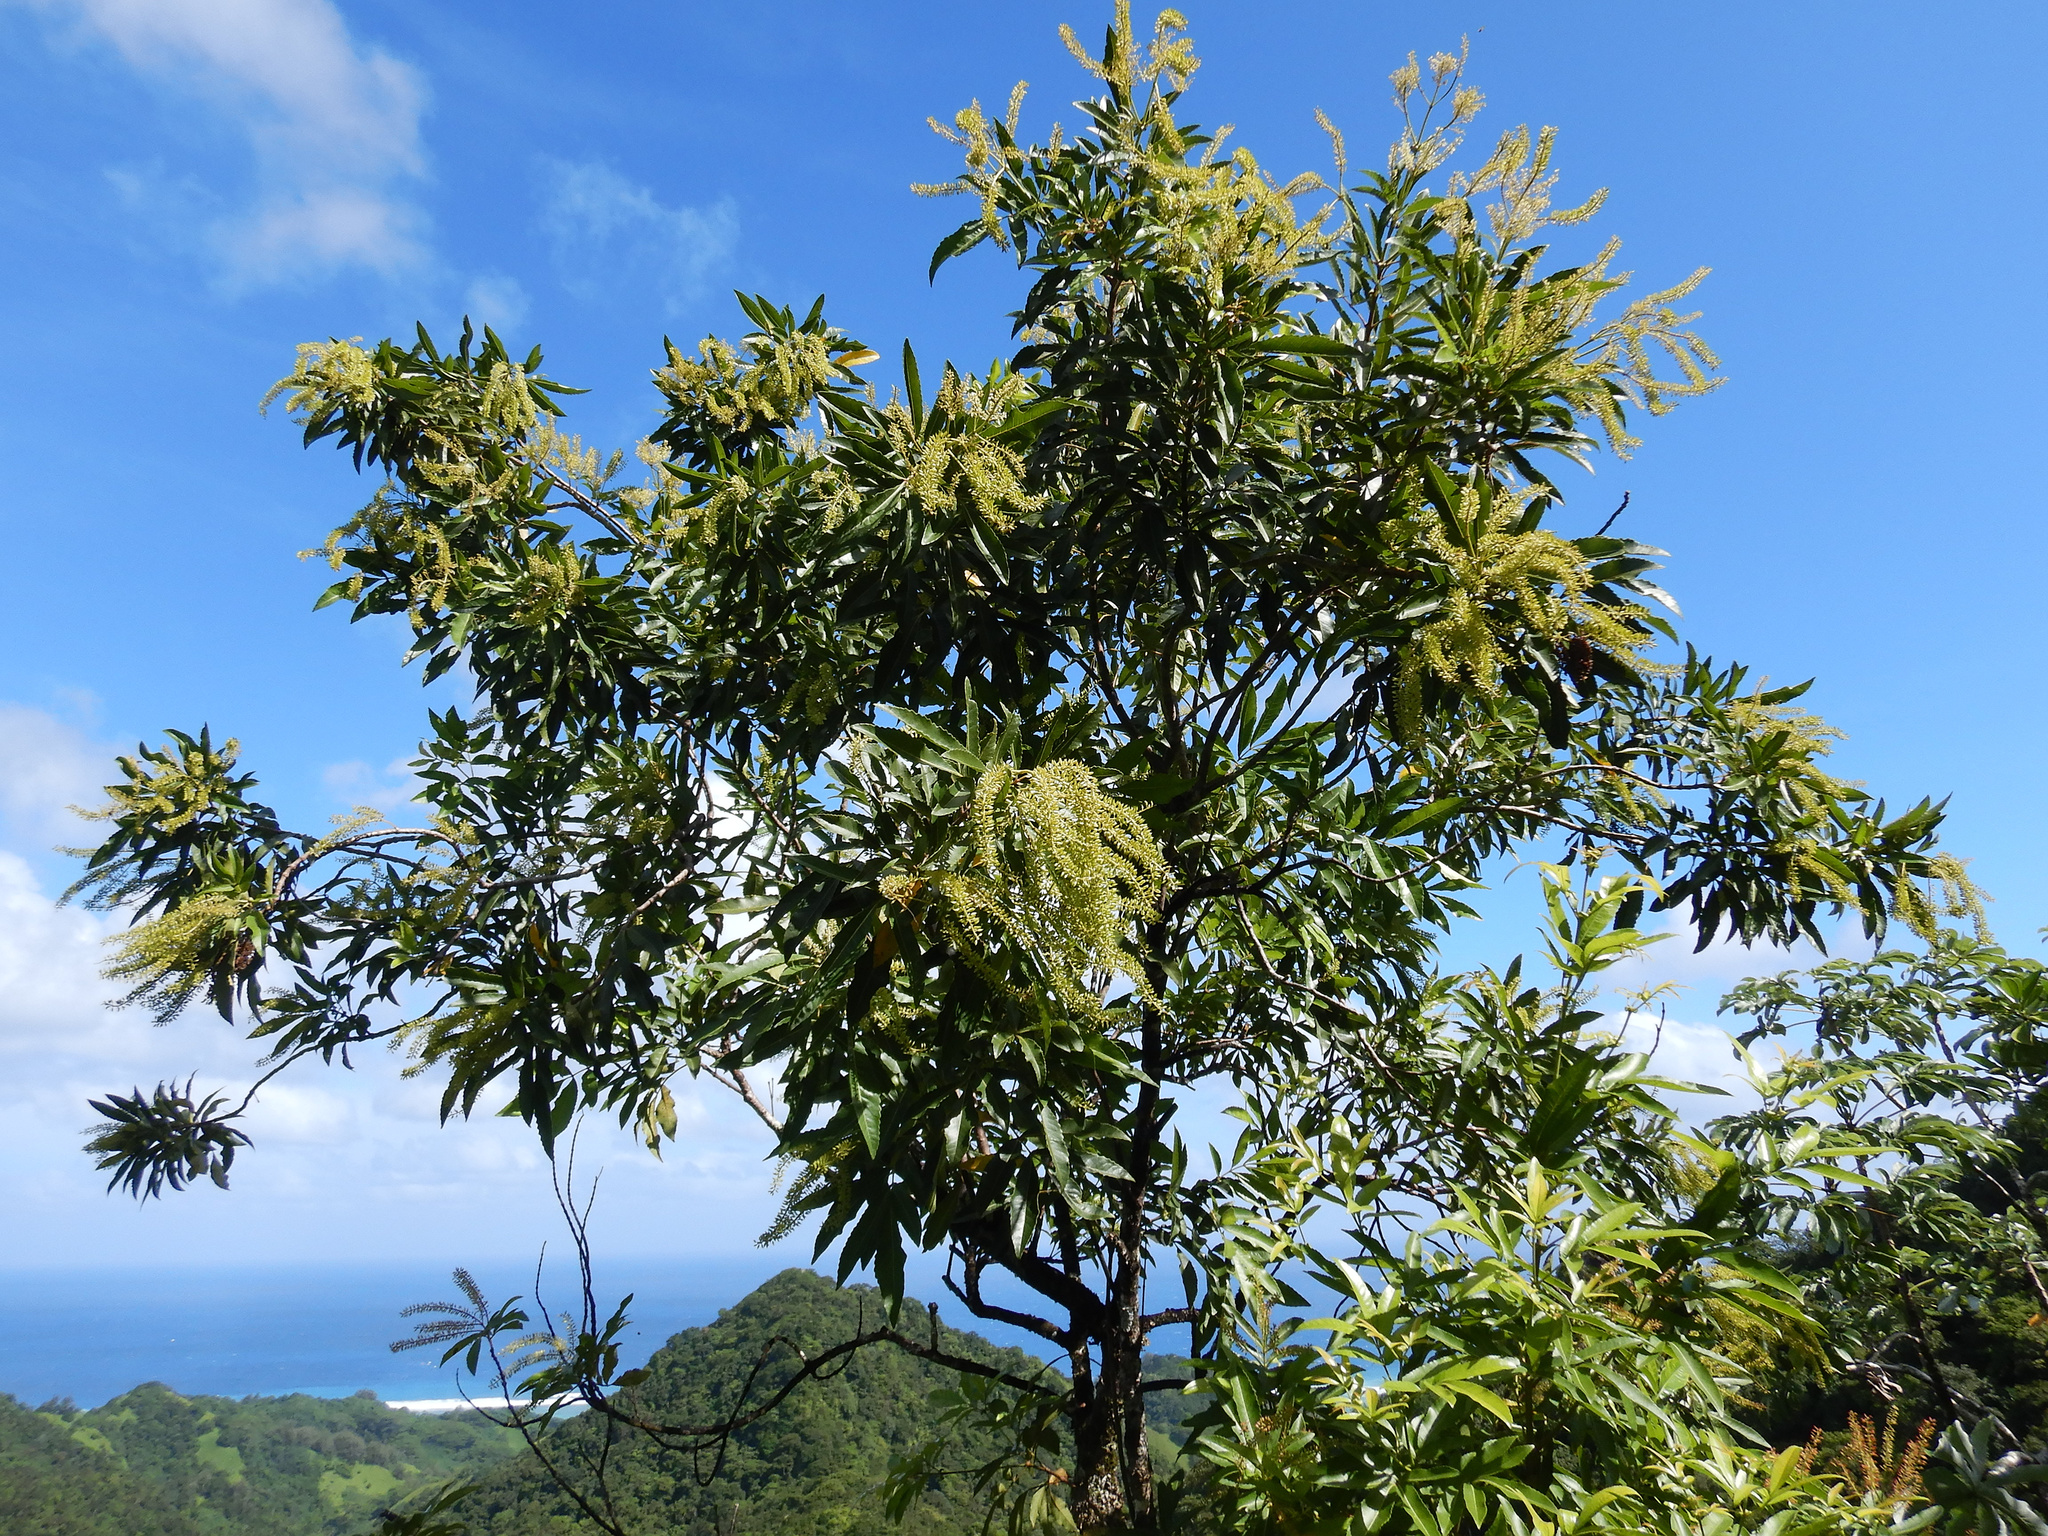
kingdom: Plantae
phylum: Tracheophyta
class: Magnoliopsida
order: Oxalidales
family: Cunoniaceae
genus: Pterophylla
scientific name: Pterophylla samoensis
